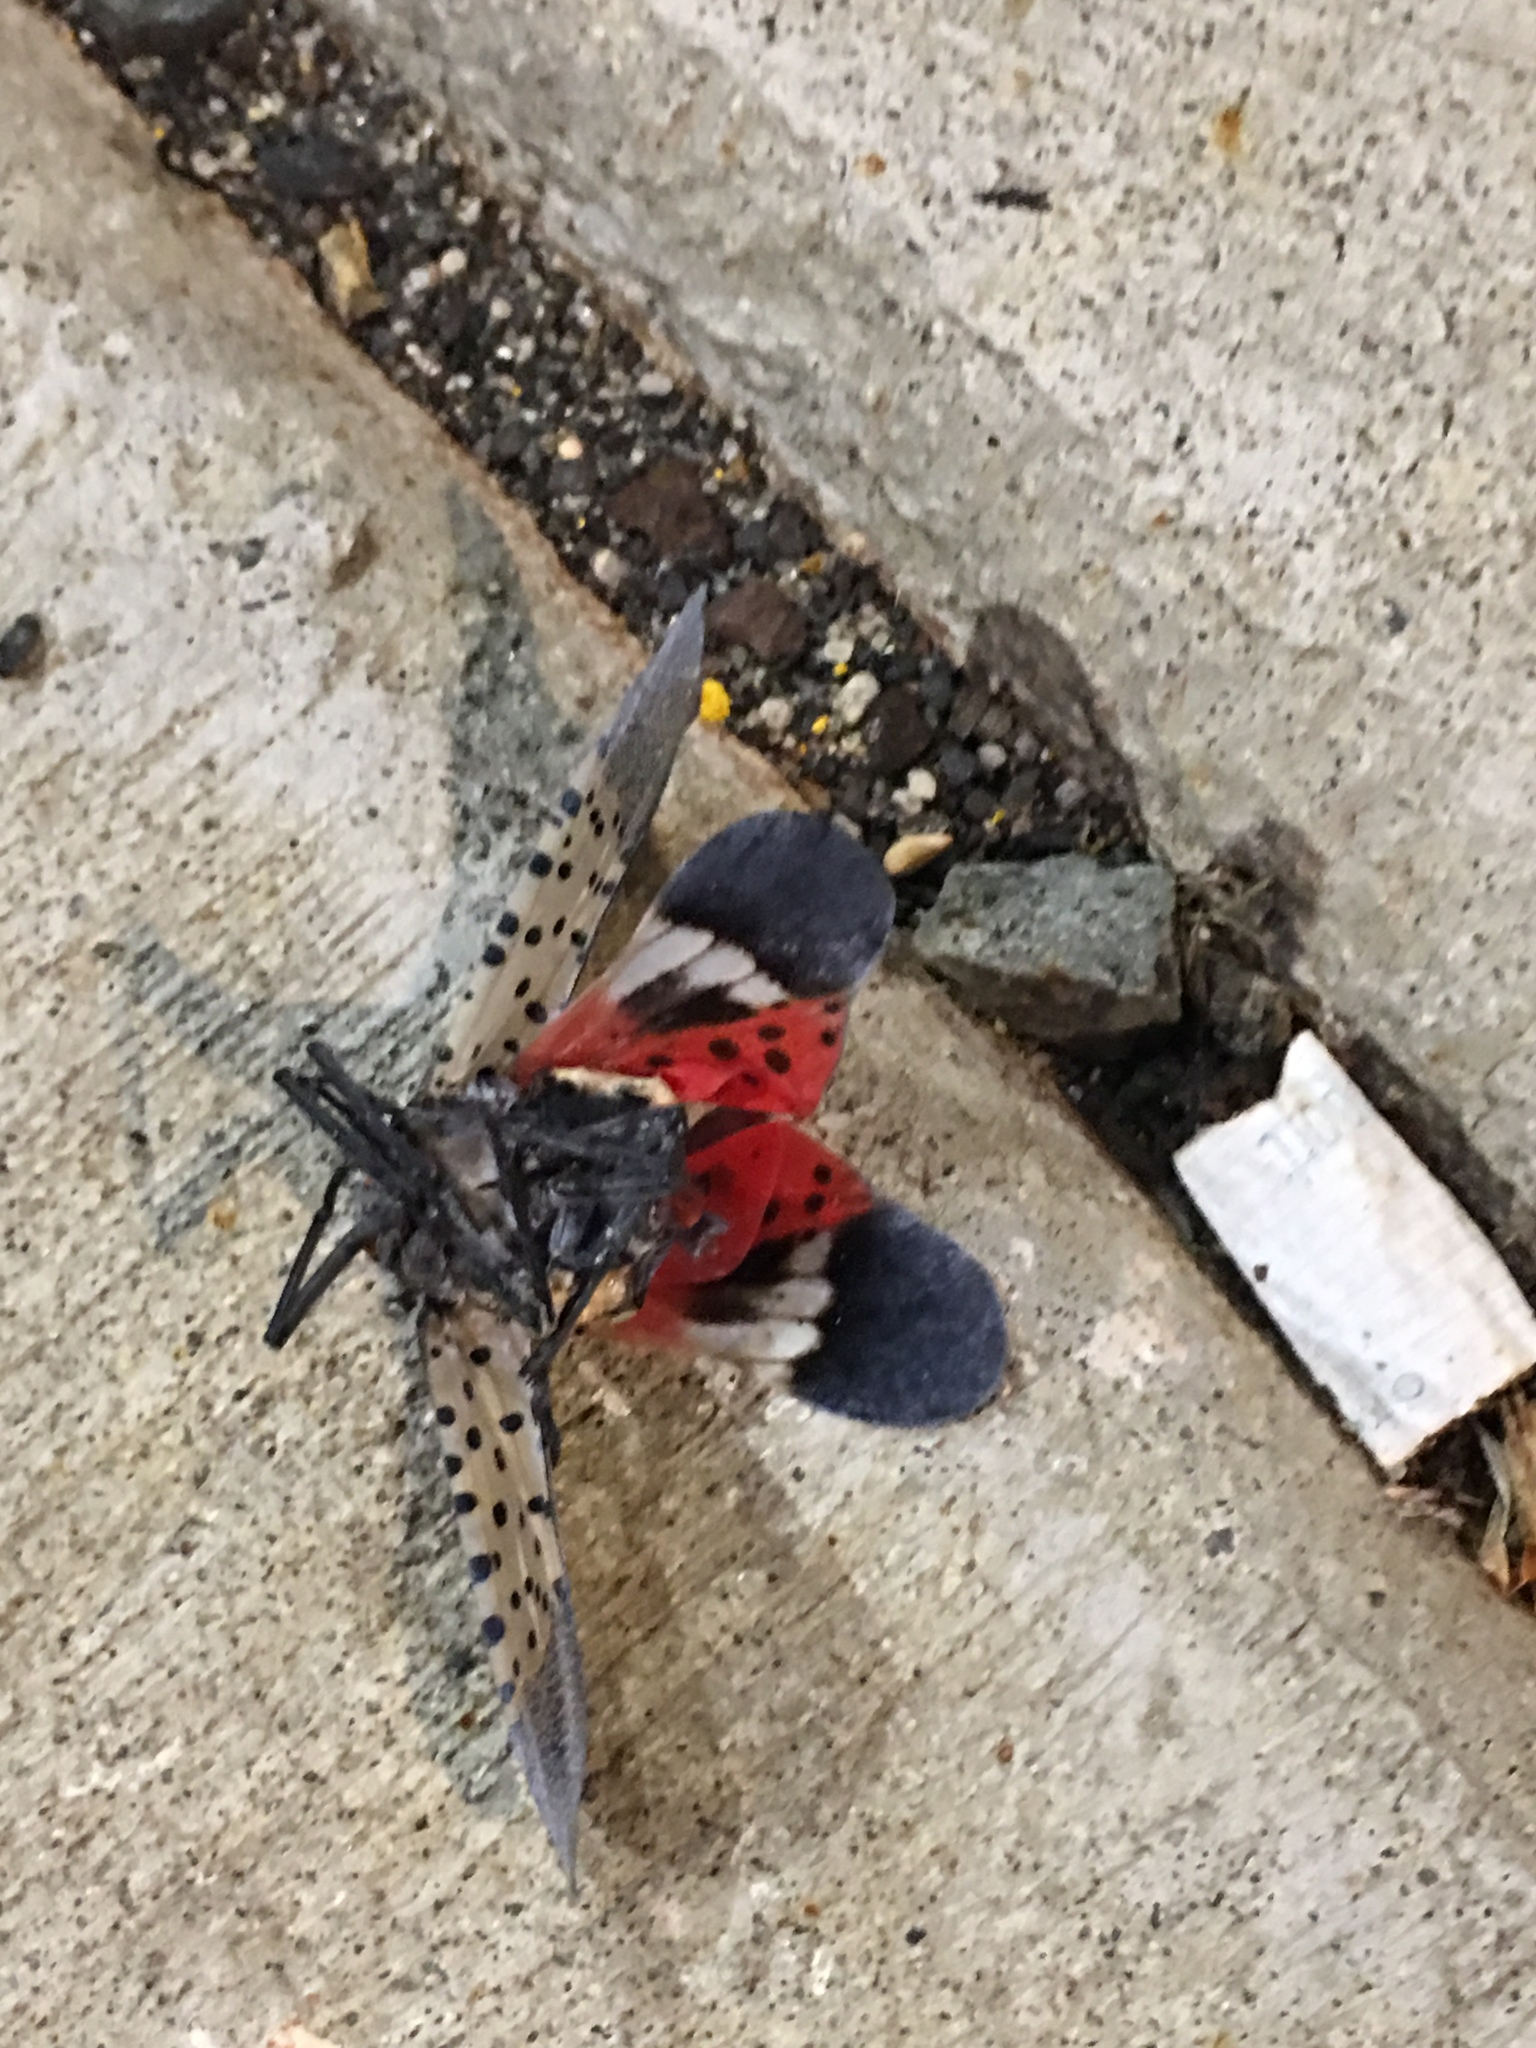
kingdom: Animalia
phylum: Arthropoda
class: Insecta
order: Hemiptera
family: Fulgoridae
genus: Lycorma
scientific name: Lycorma delicatula
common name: Spotted lanternfly
